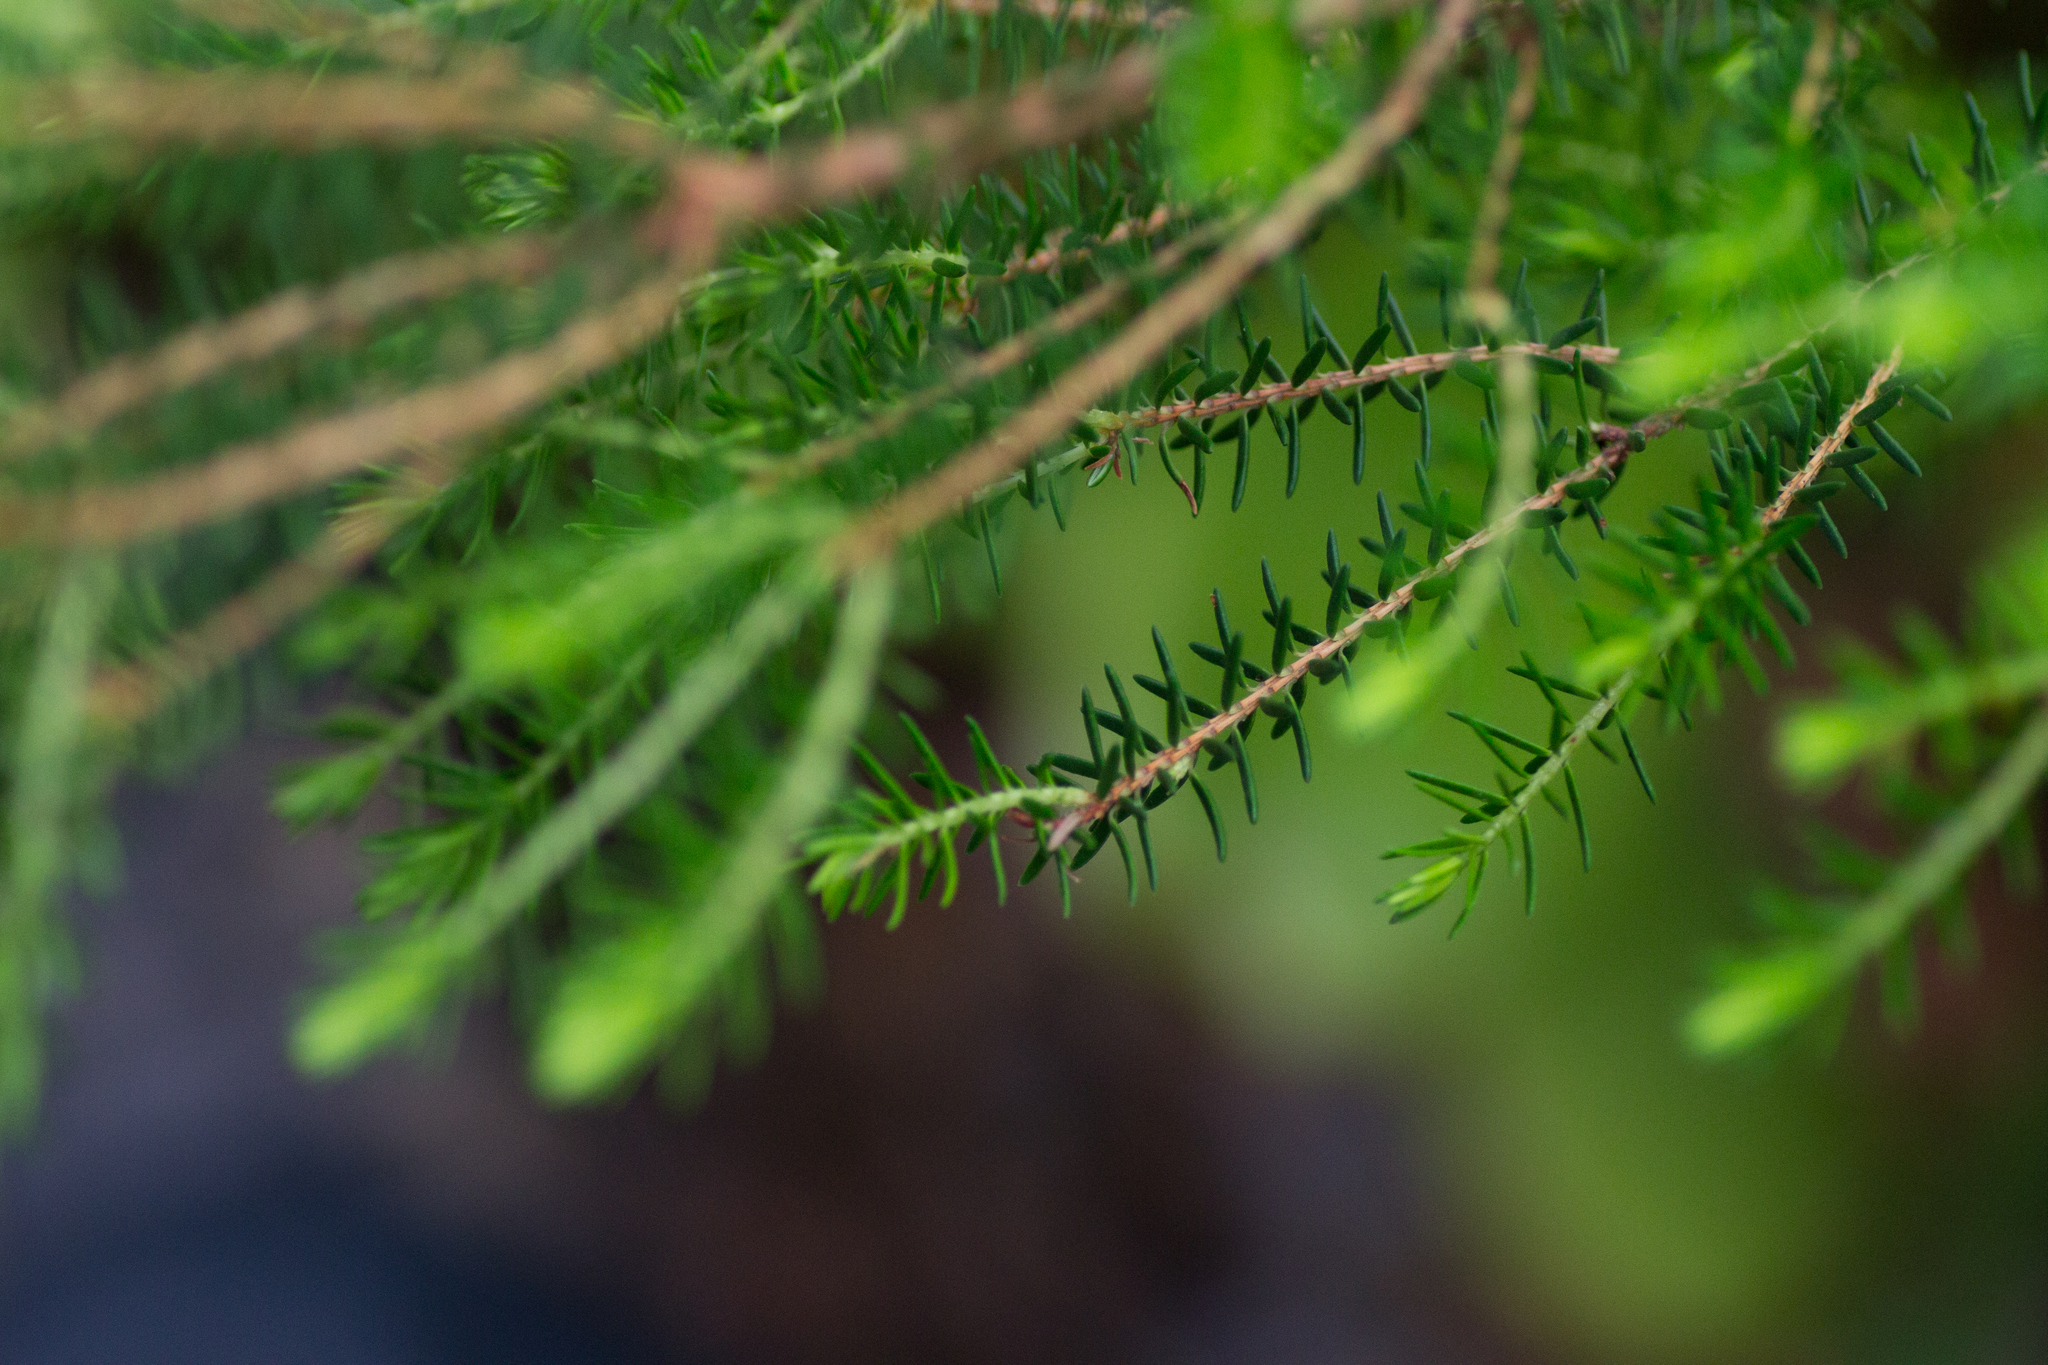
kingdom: Plantae
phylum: Tracheophyta
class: Magnoliopsida
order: Ericales
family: Ericaceae
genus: Erica
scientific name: Erica platycodon
